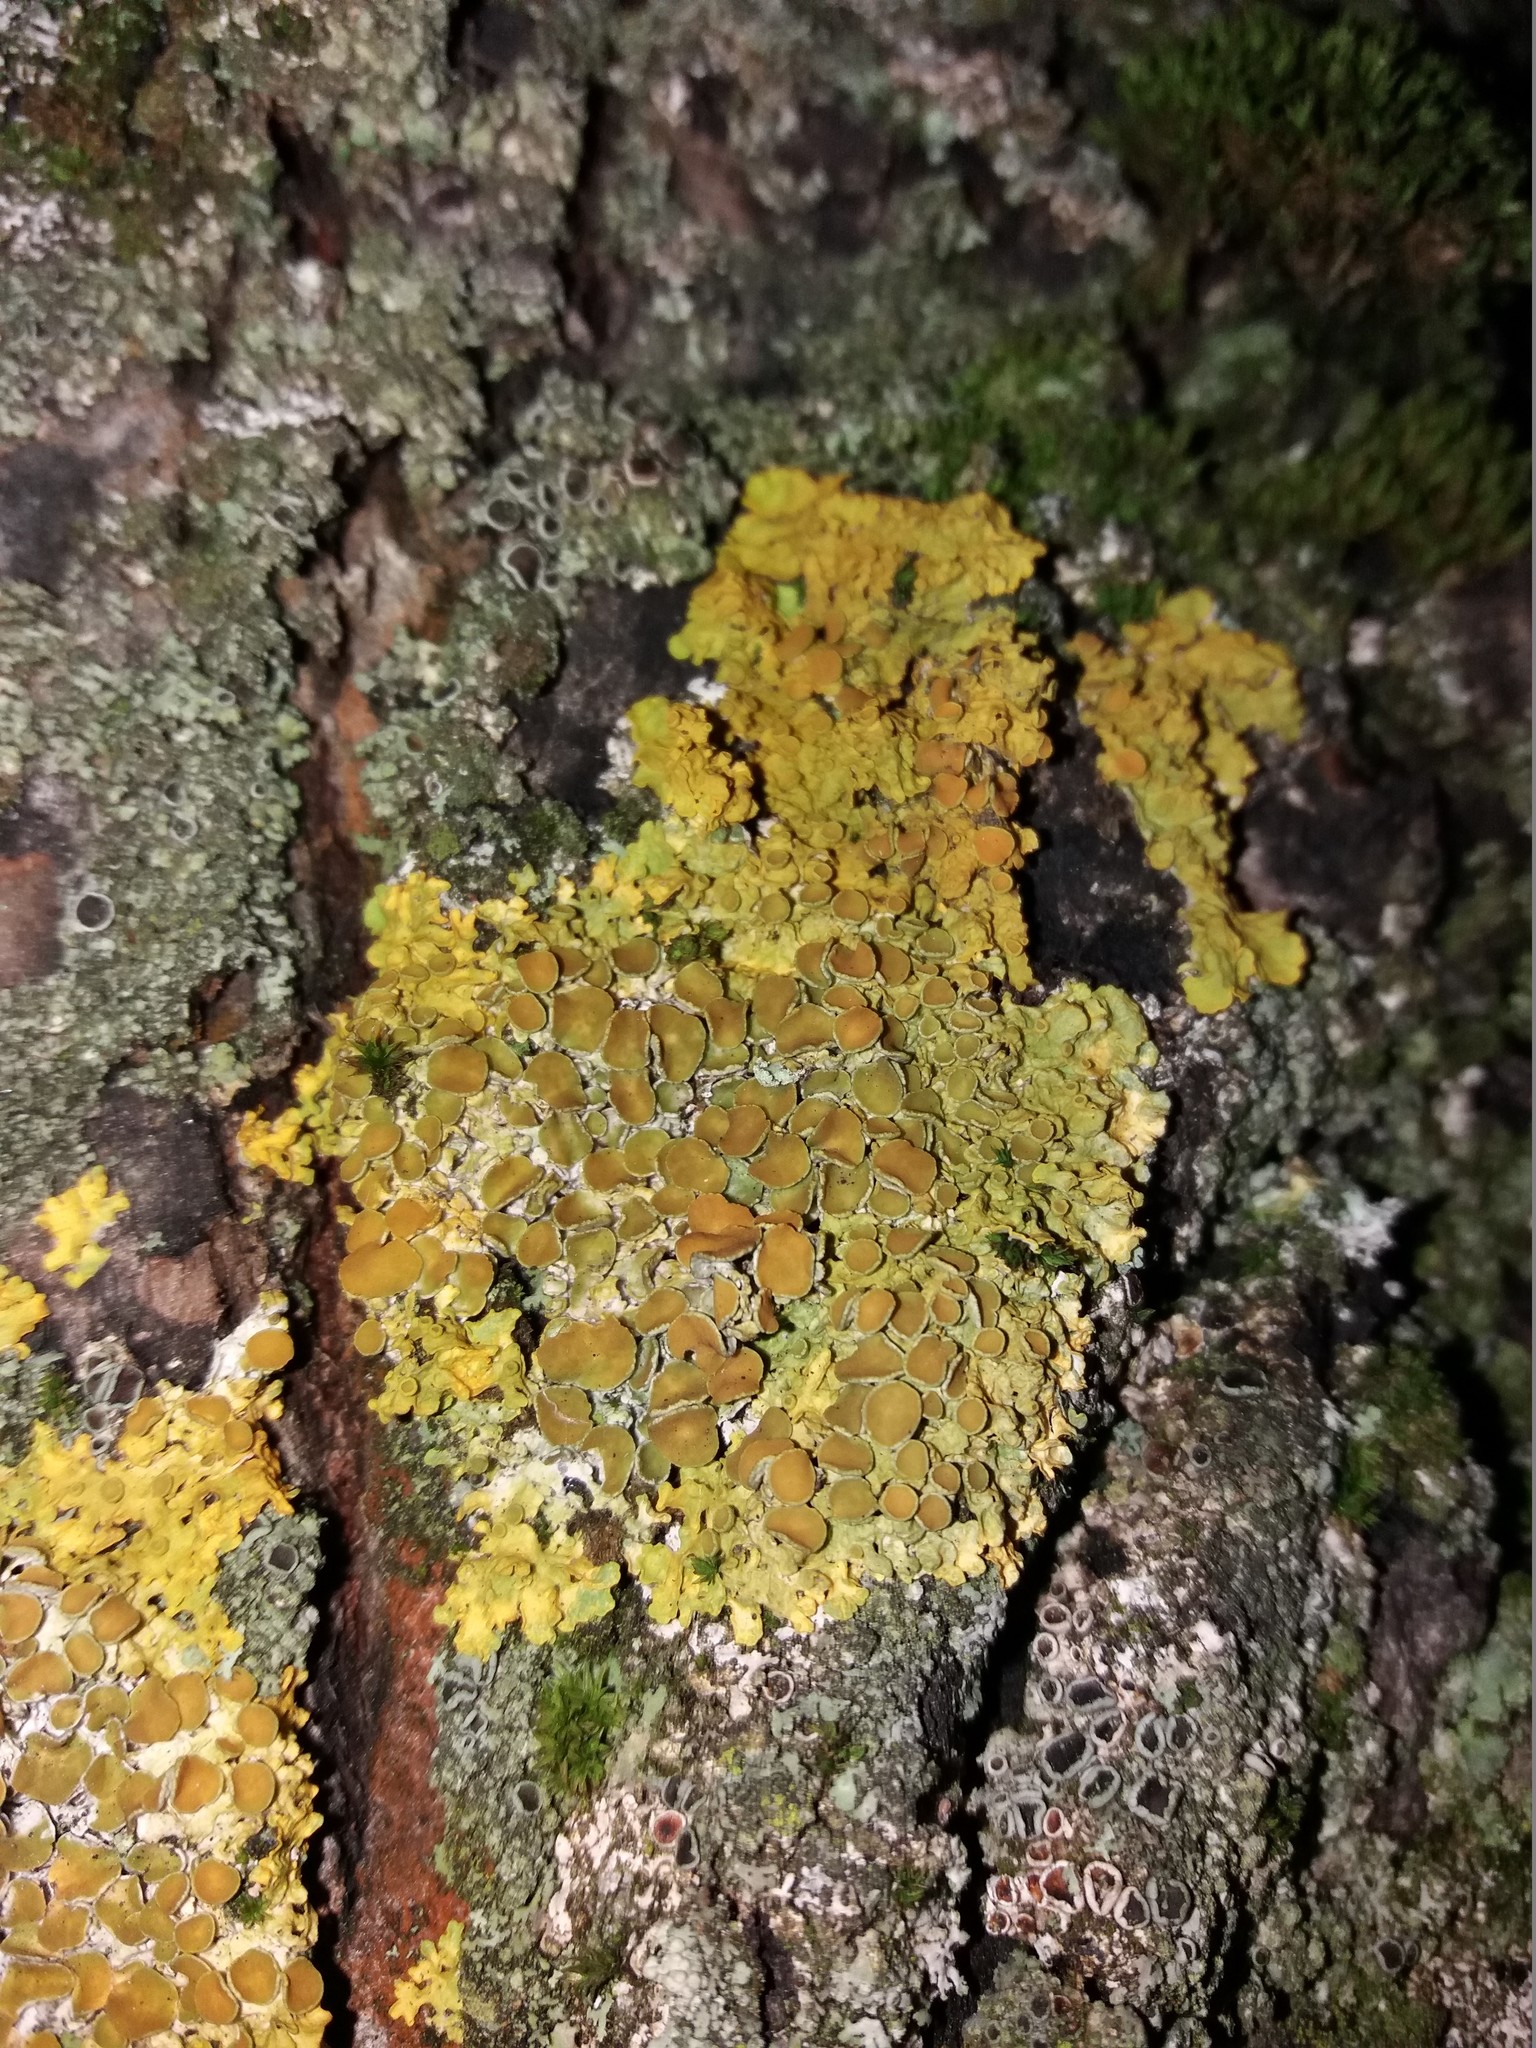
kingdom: Fungi
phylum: Ascomycota
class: Lecanoromycetes
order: Teloschistales
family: Teloschistaceae
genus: Xanthoria
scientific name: Xanthoria parietina
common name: Common orange lichen
